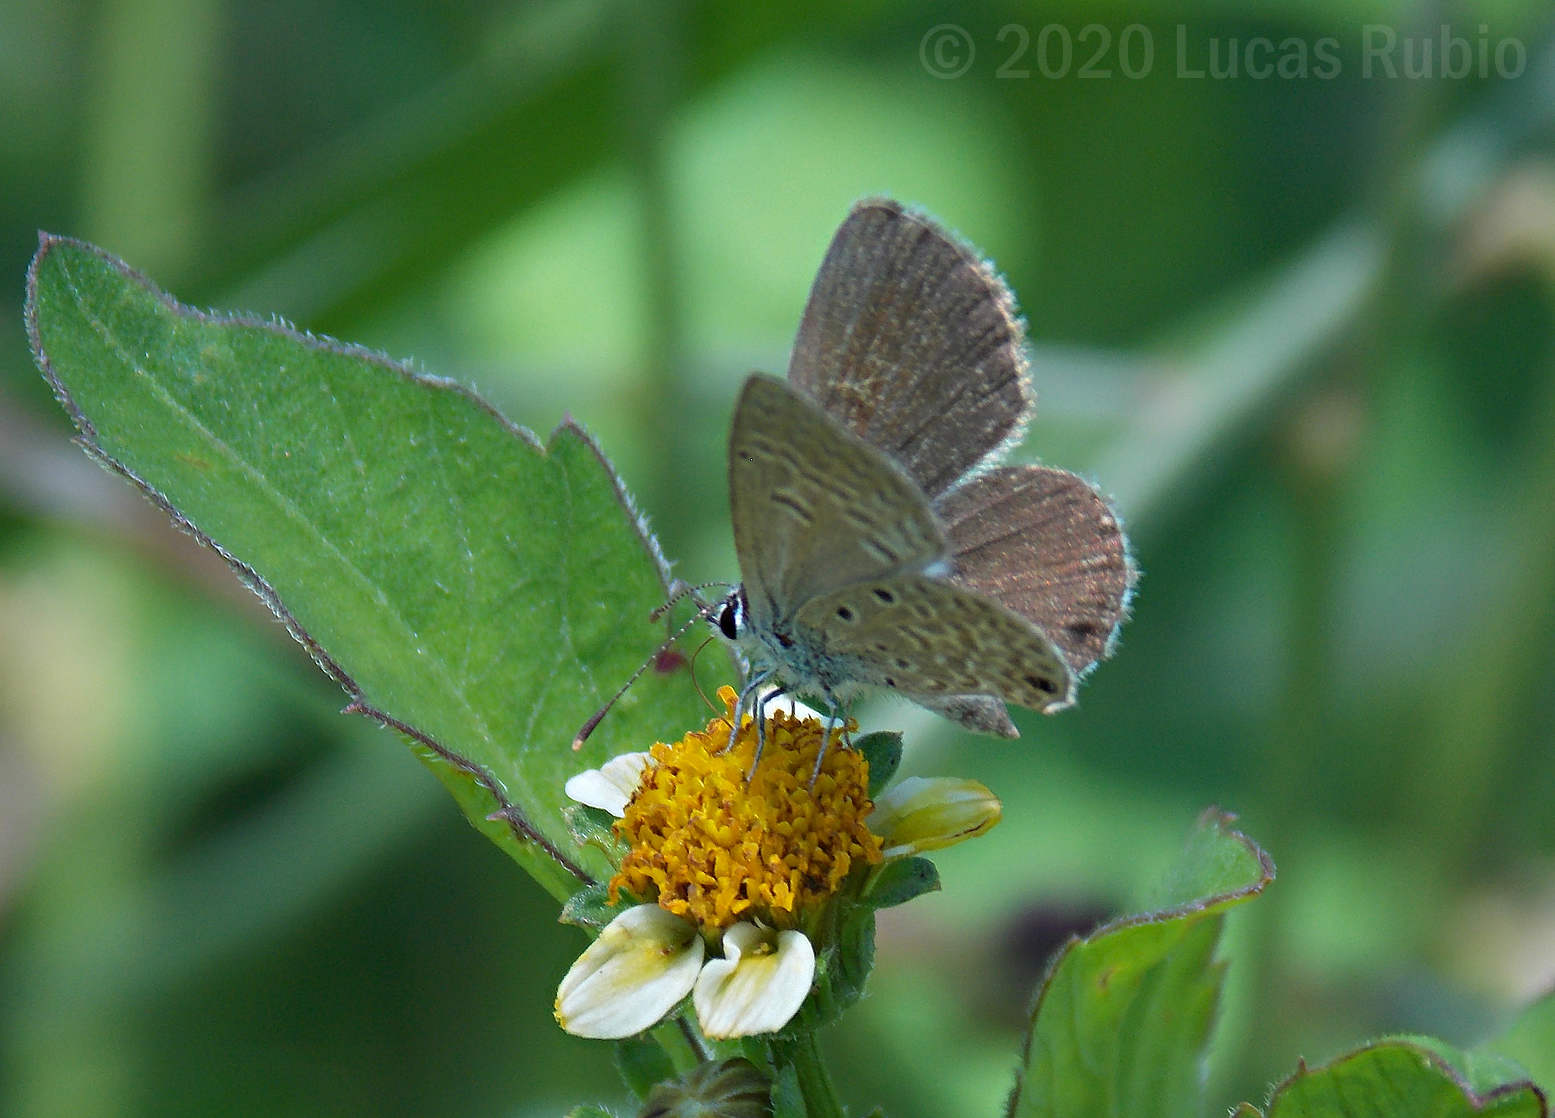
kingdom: Animalia
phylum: Arthropoda
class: Insecta
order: Lepidoptera
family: Lycaenidae
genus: Hemiargus
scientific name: Hemiargus hanno
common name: Common blue
